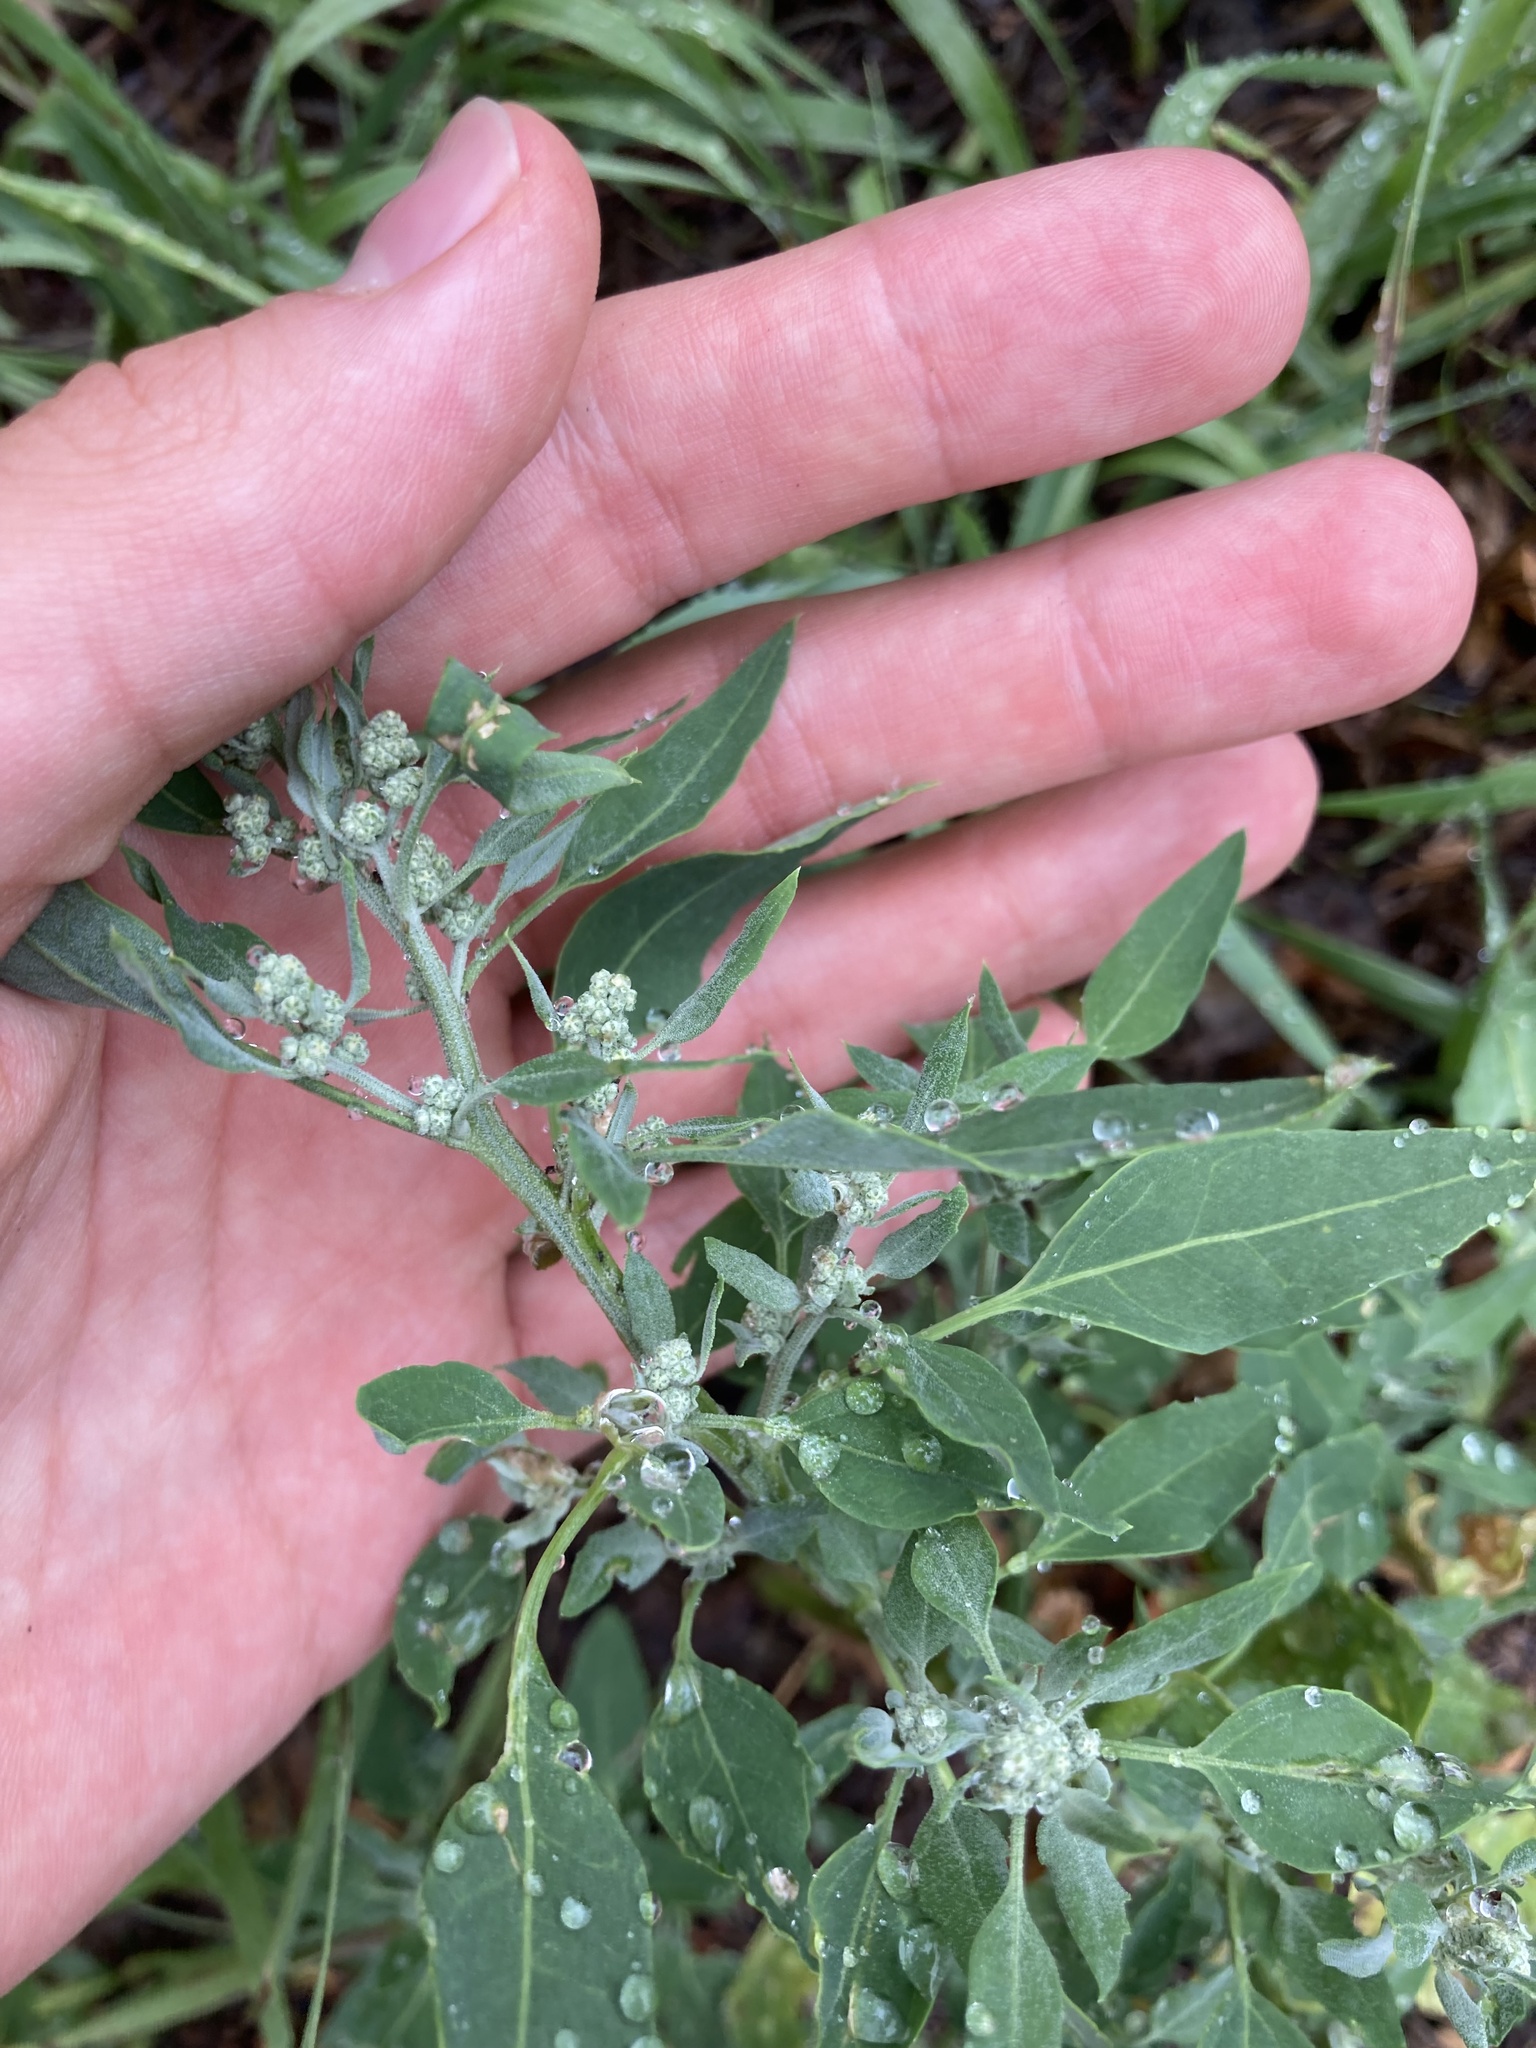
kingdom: Plantae
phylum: Tracheophyta
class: Magnoliopsida
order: Caryophyllales
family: Amaranthaceae
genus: Chenopodium
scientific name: Chenopodium album
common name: Fat-hen
